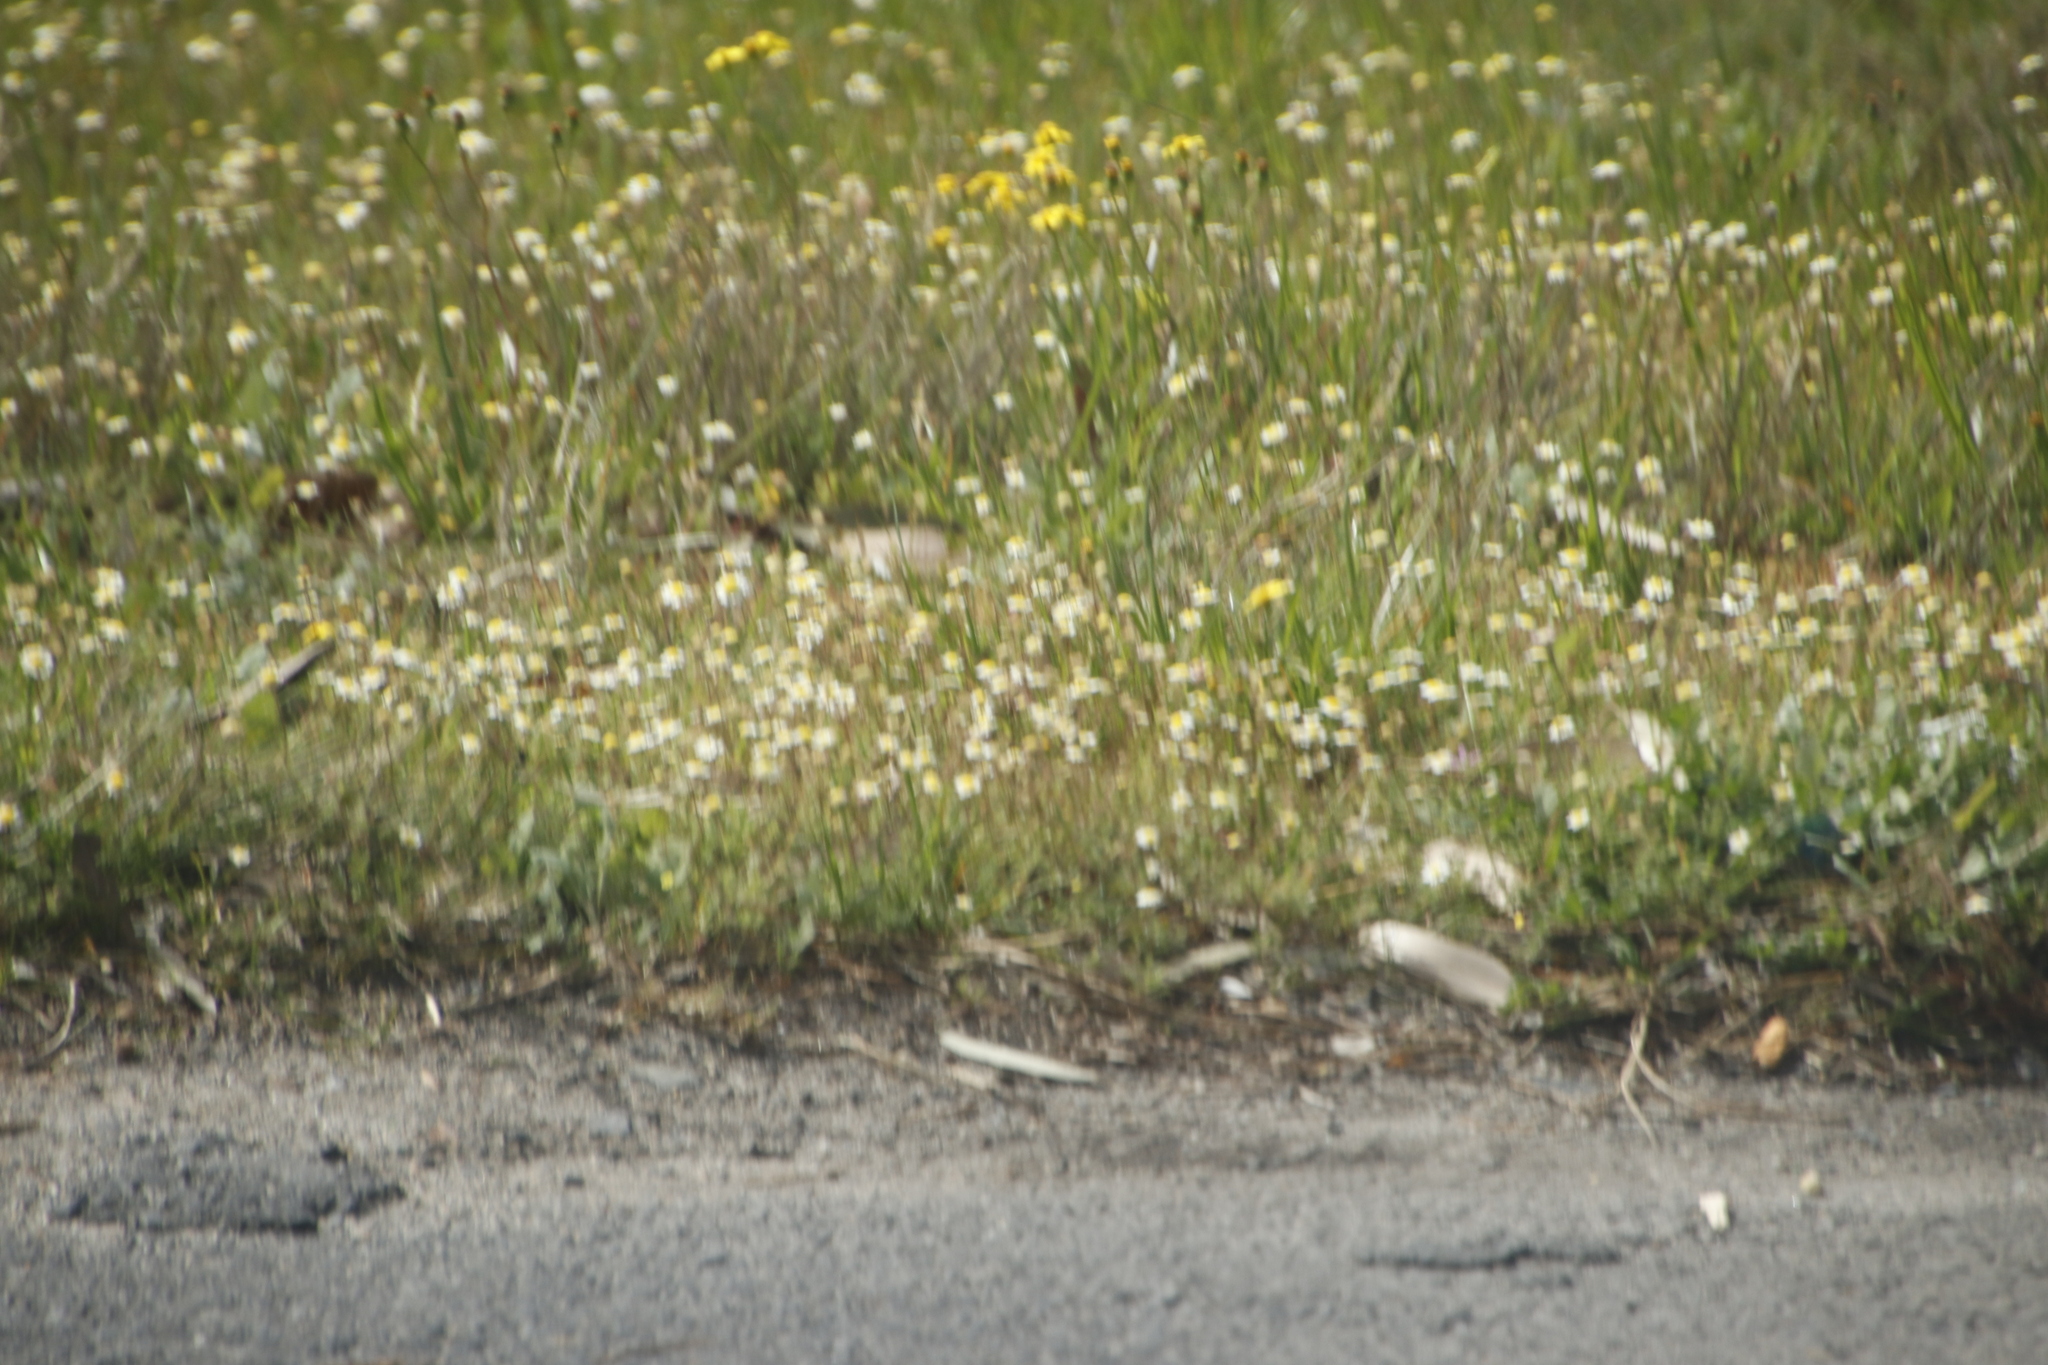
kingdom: Plantae
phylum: Tracheophyta
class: Magnoliopsida
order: Asterales
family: Asteraceae
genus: Cotula
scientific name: Cotula turbinata
